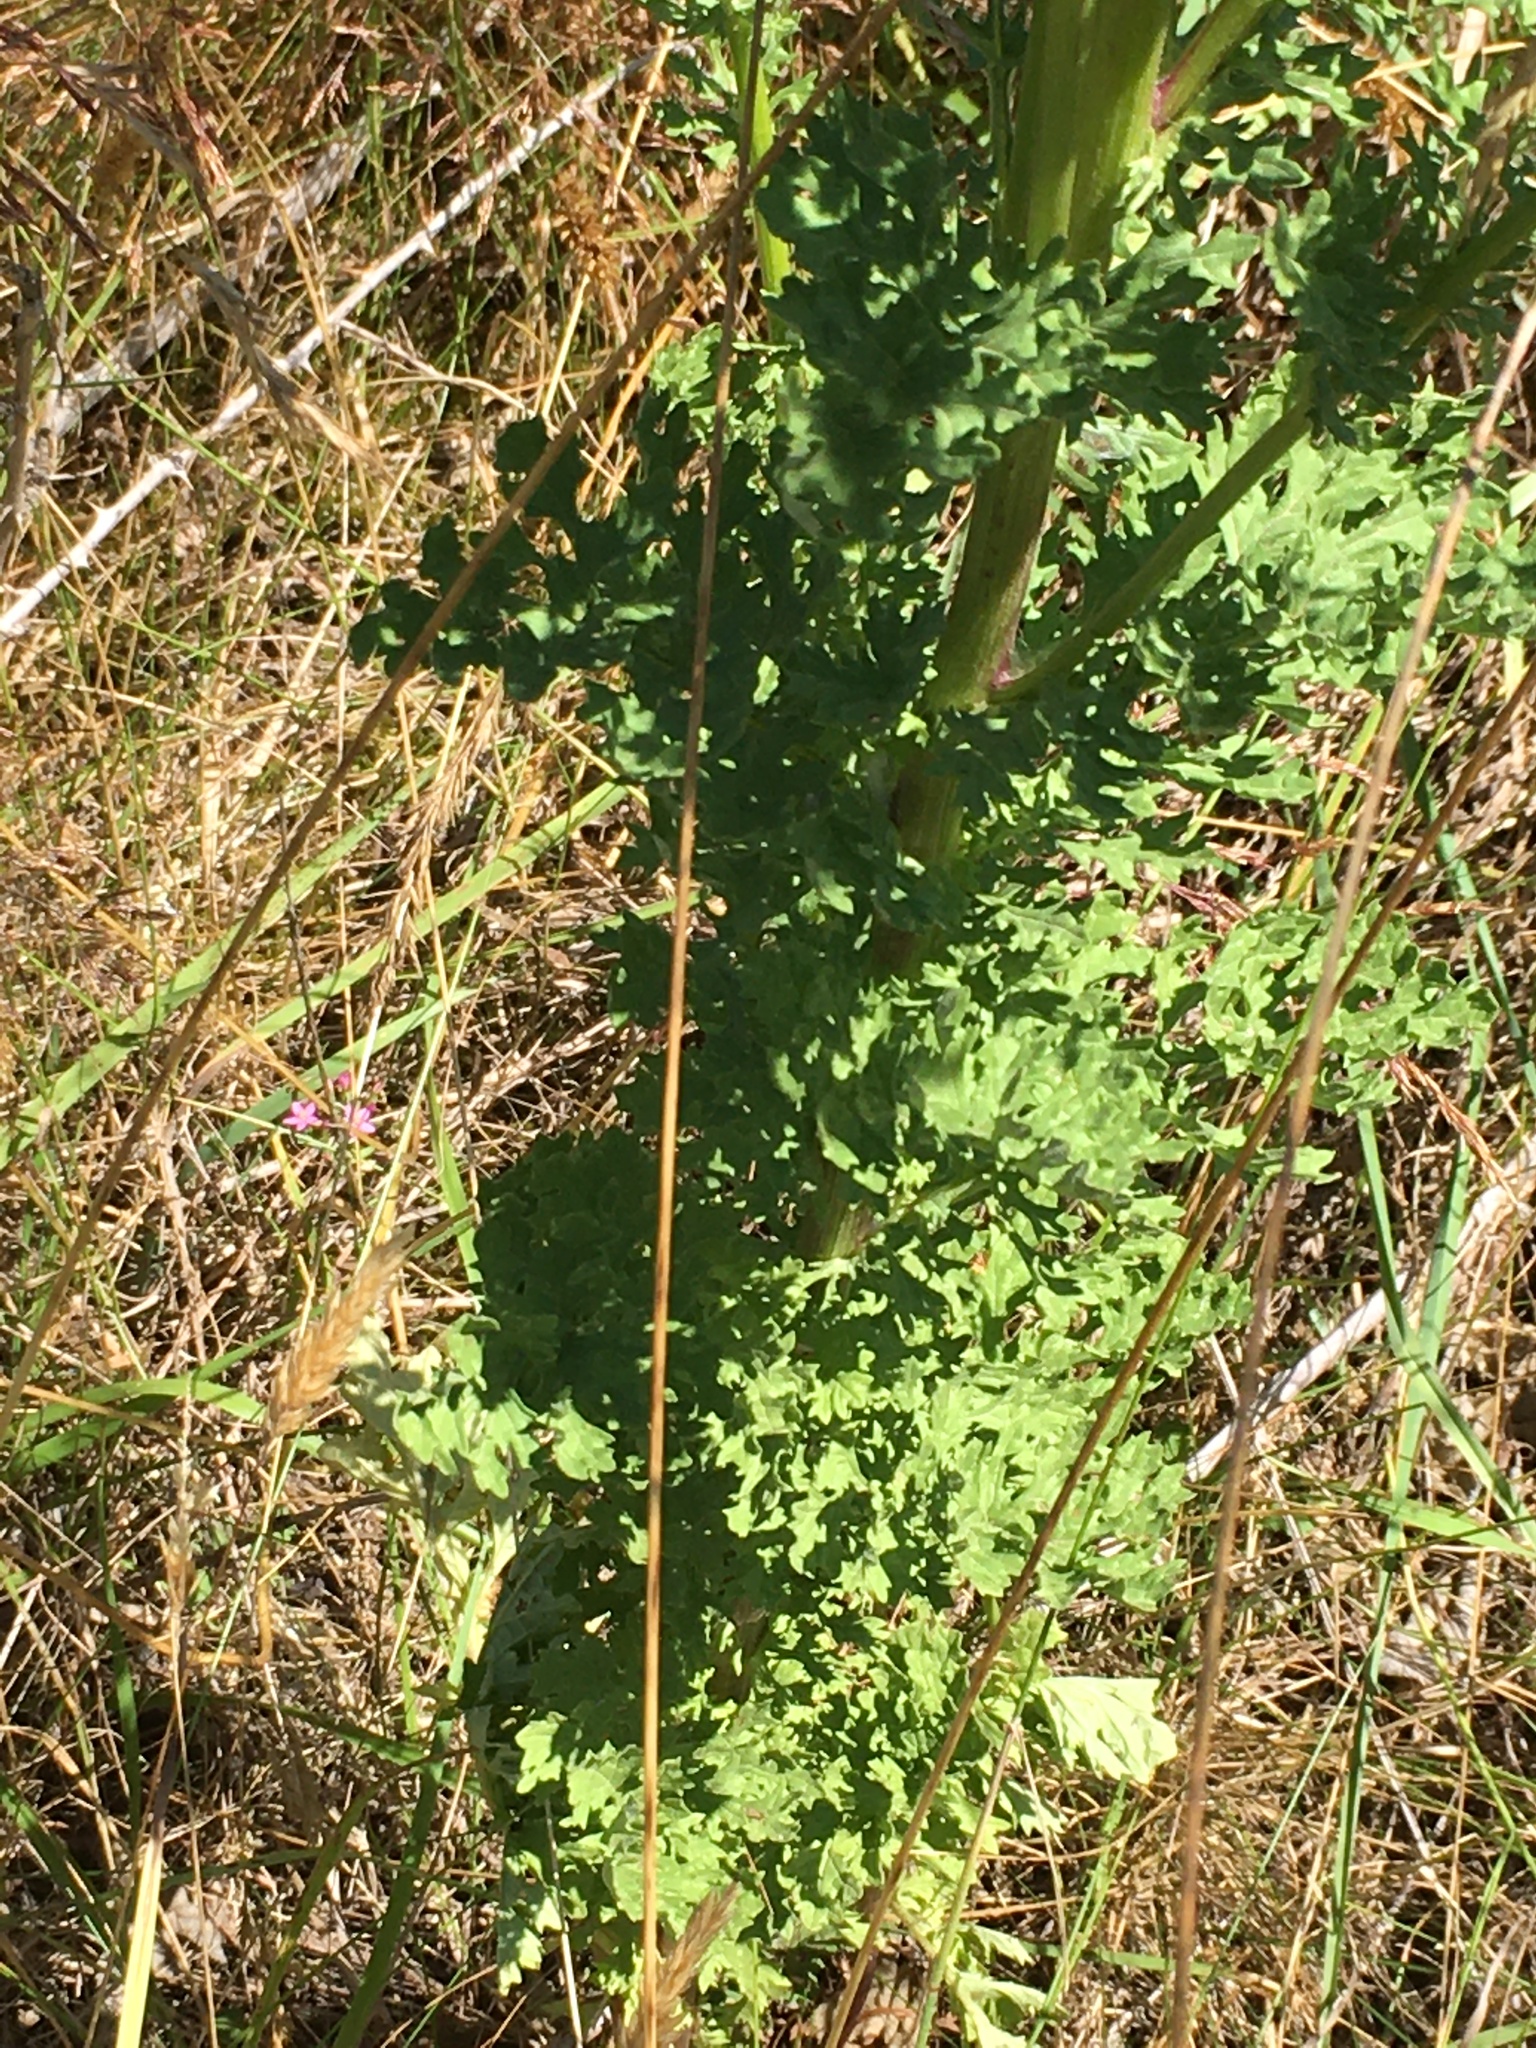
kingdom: Plantae
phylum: Tracheophyta
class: Magnoliopsida
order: Asterales
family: Asteraceae
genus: Jacobaea
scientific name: Jacobaea vulgaris
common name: Stinking willie
